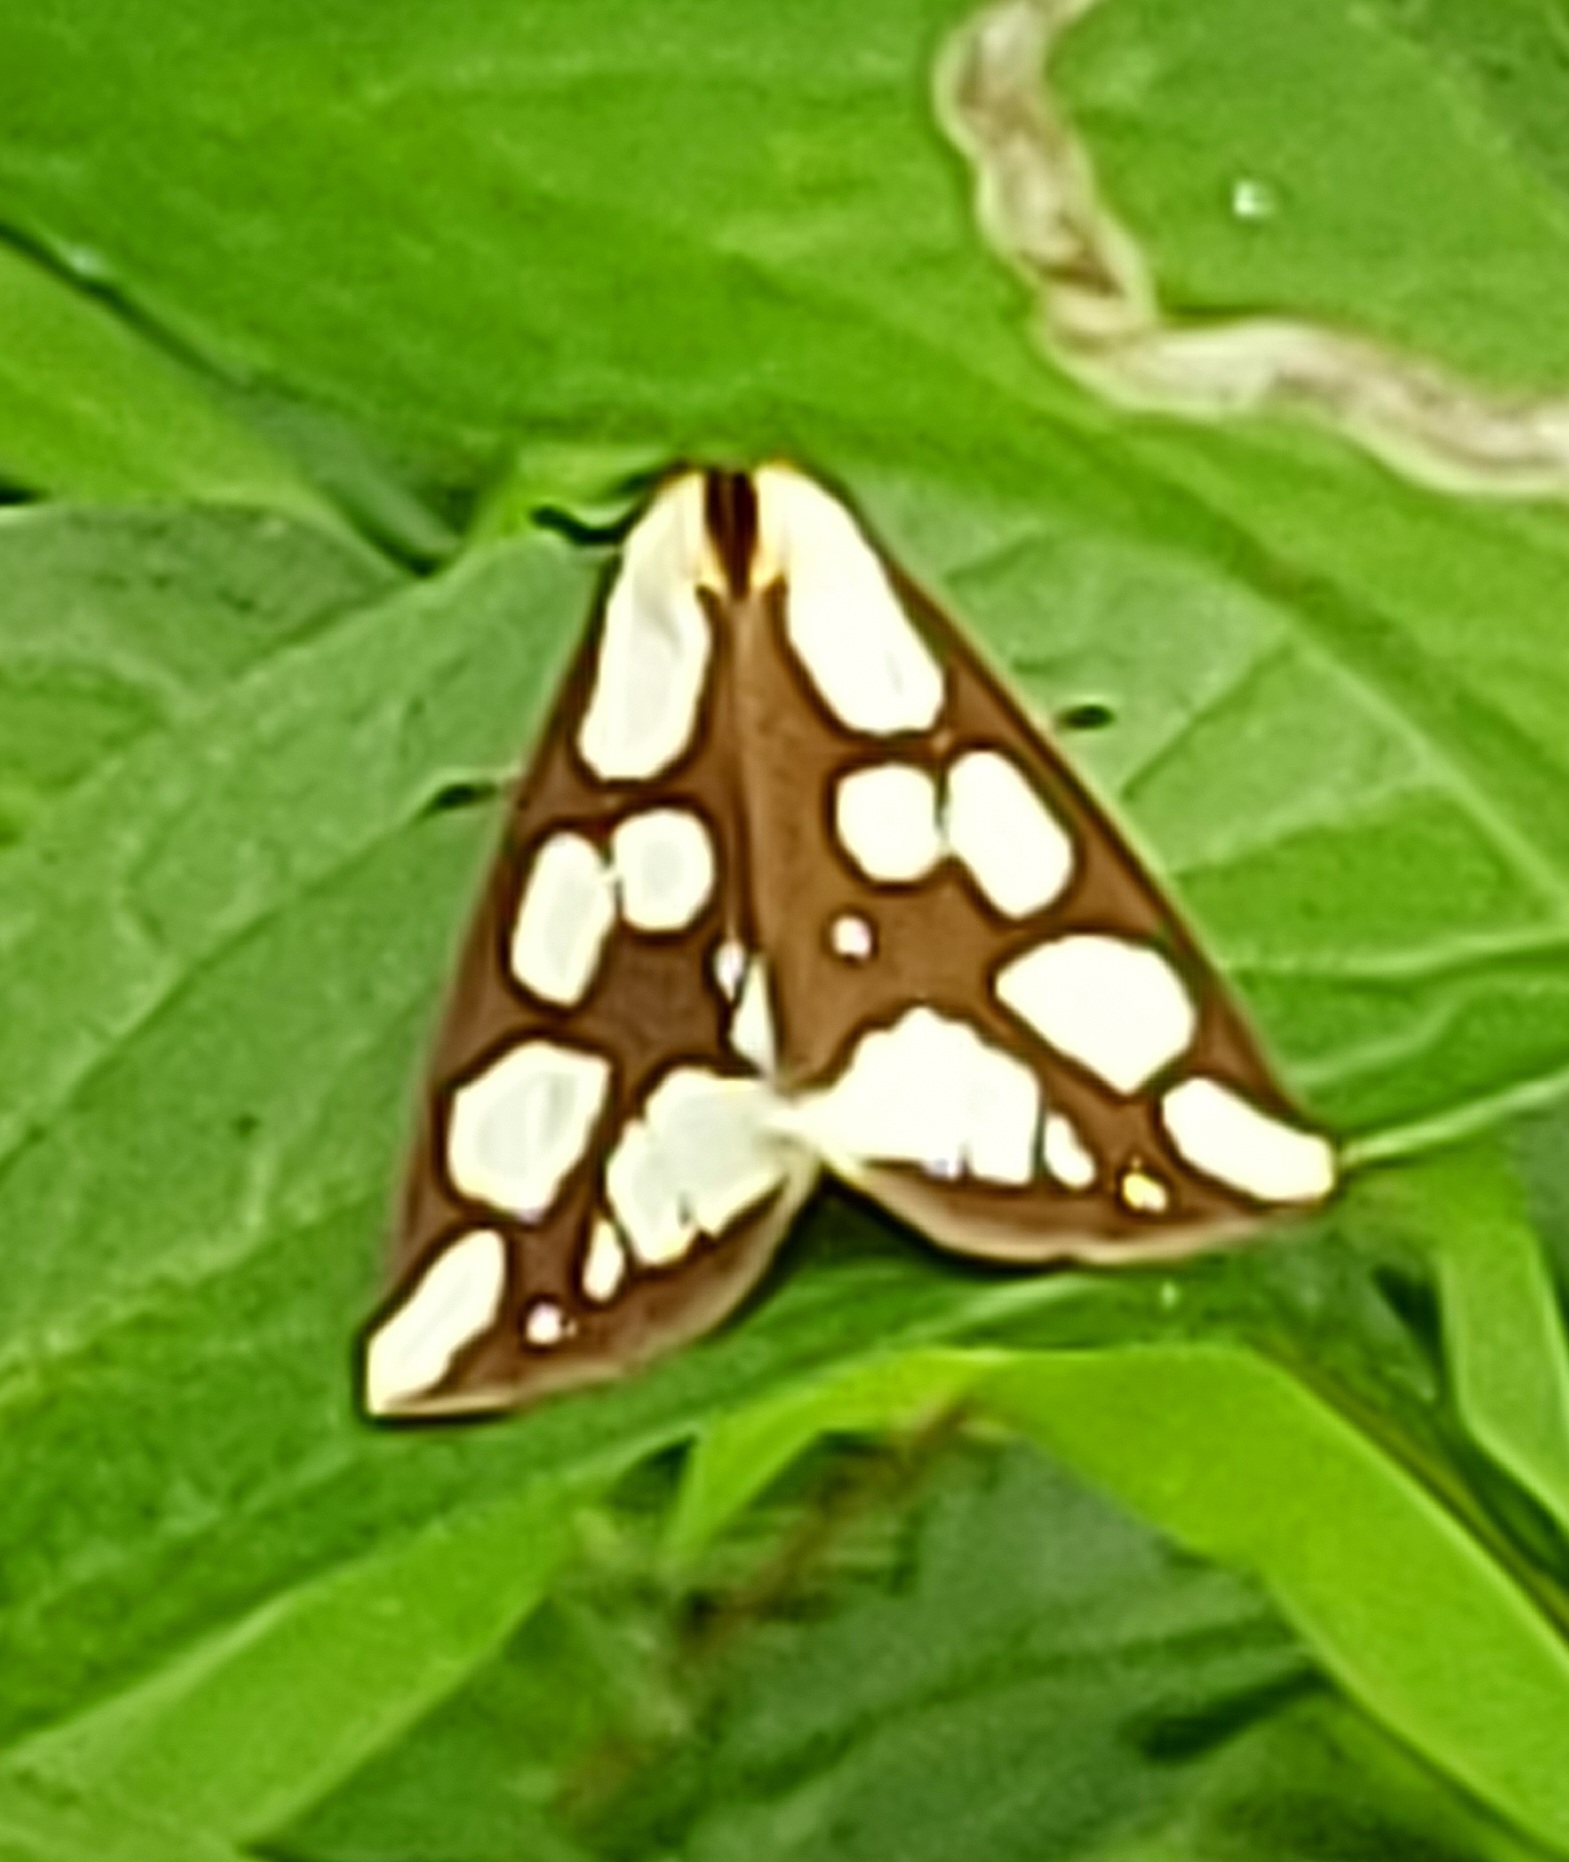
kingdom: Animalia
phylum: Arthropoda
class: Insecta
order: Lepidoptera
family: Erebidae
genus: Haploa
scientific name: Haploa confusa
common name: Confused haploa moth
